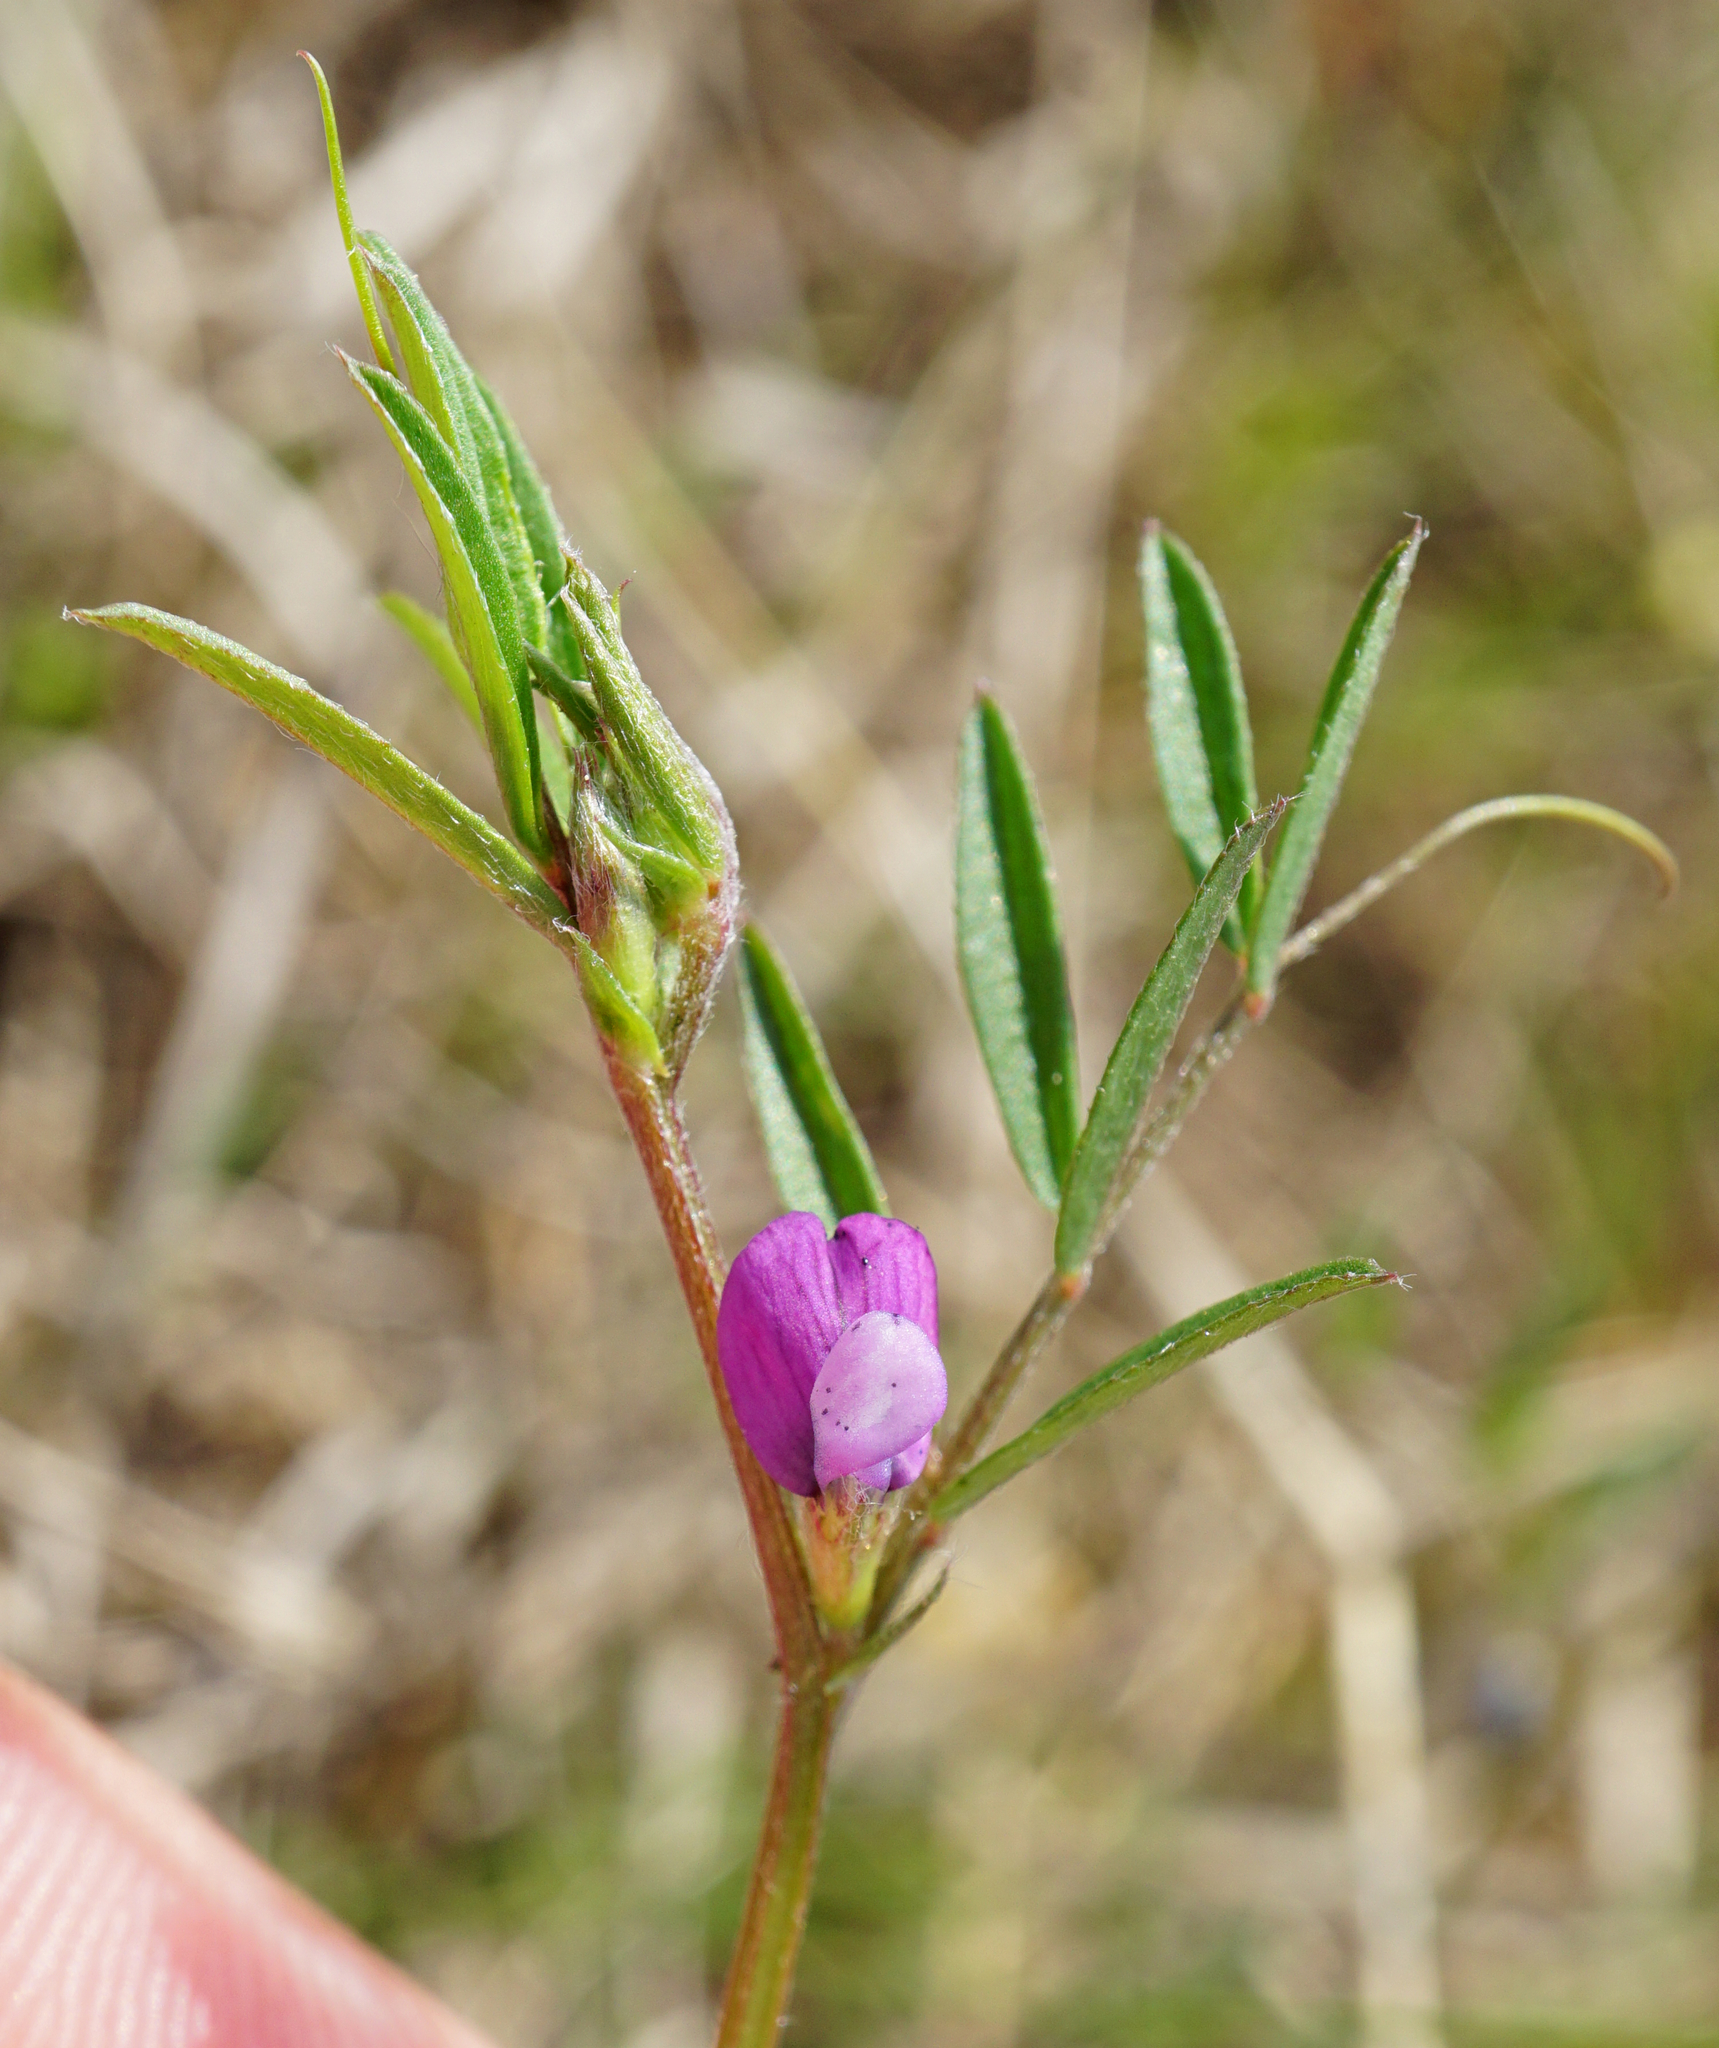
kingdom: Plantae
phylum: Tracheophyta
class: Magnoliopsida
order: Fabales
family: Fabaceae
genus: Vicia
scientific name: Vicia lathyroides
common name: Spring vetch
